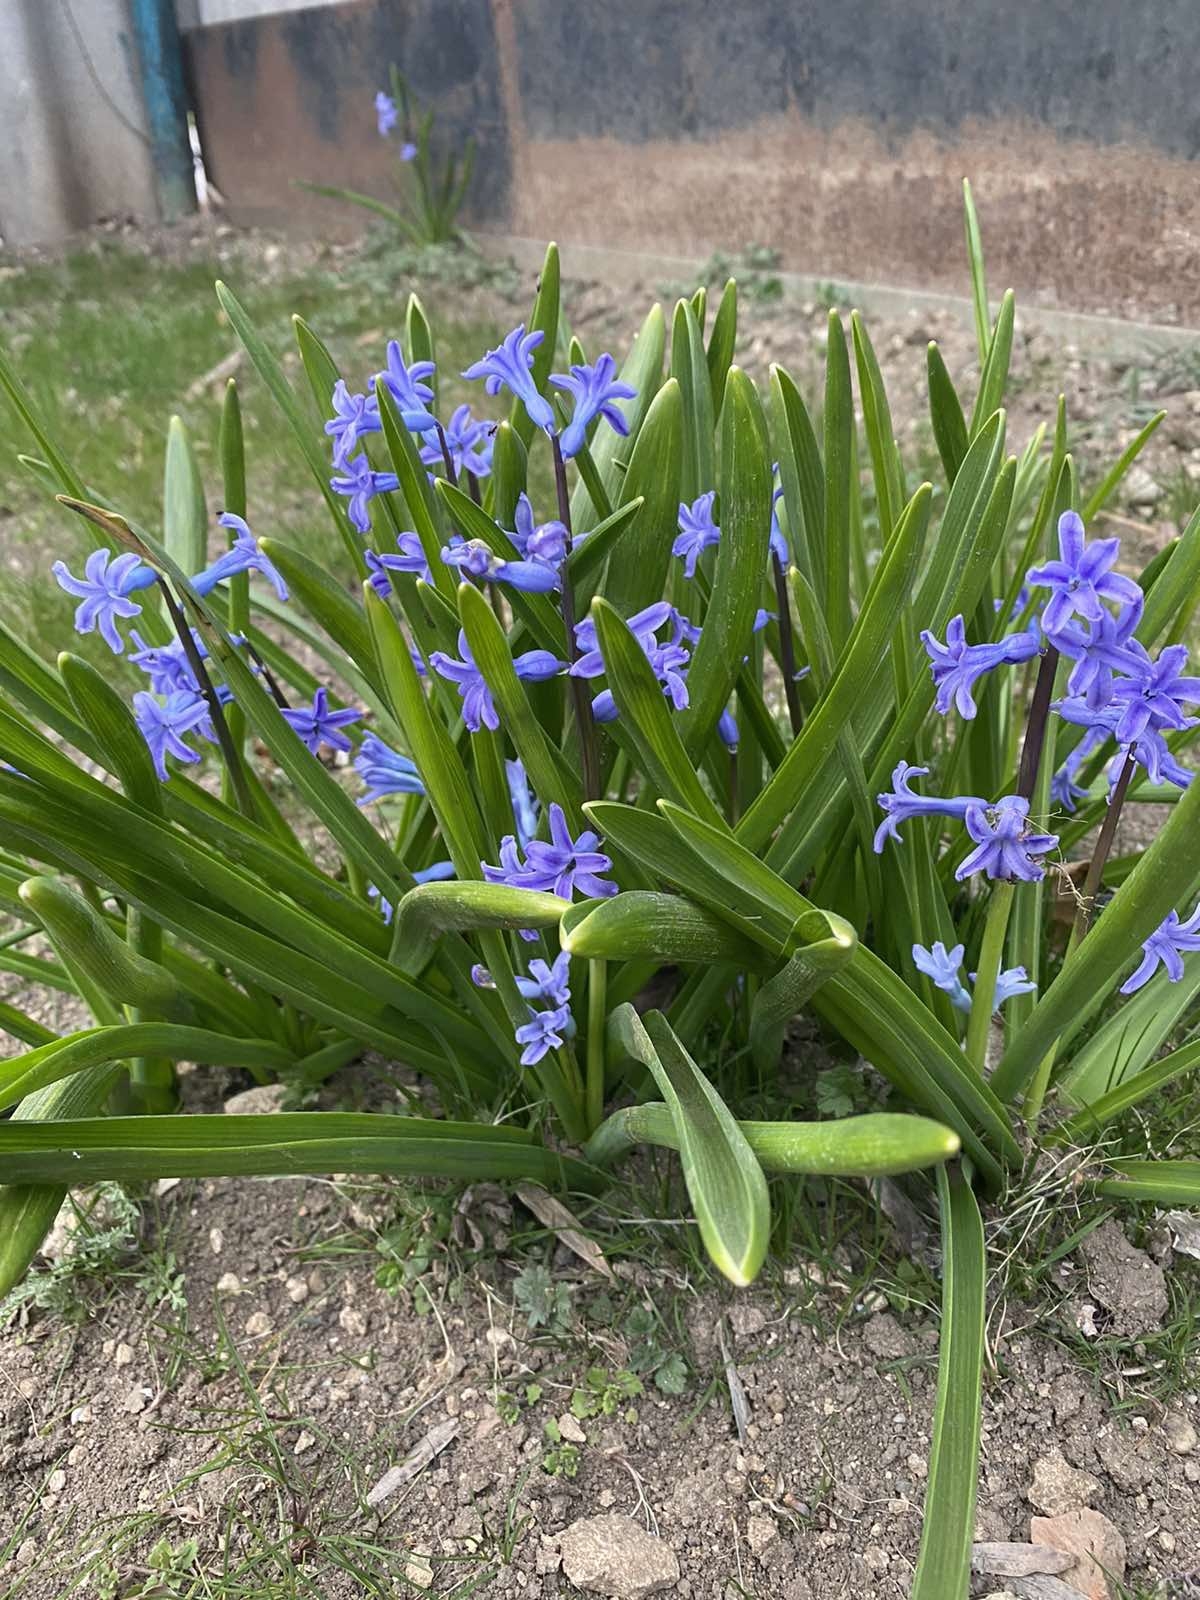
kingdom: Plantae
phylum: Tracheophyta
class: Liliopsida
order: Asparagales
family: Asparagaceae
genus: Hyacinthus
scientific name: Hyacinthus orientalis
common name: Hyacinth
